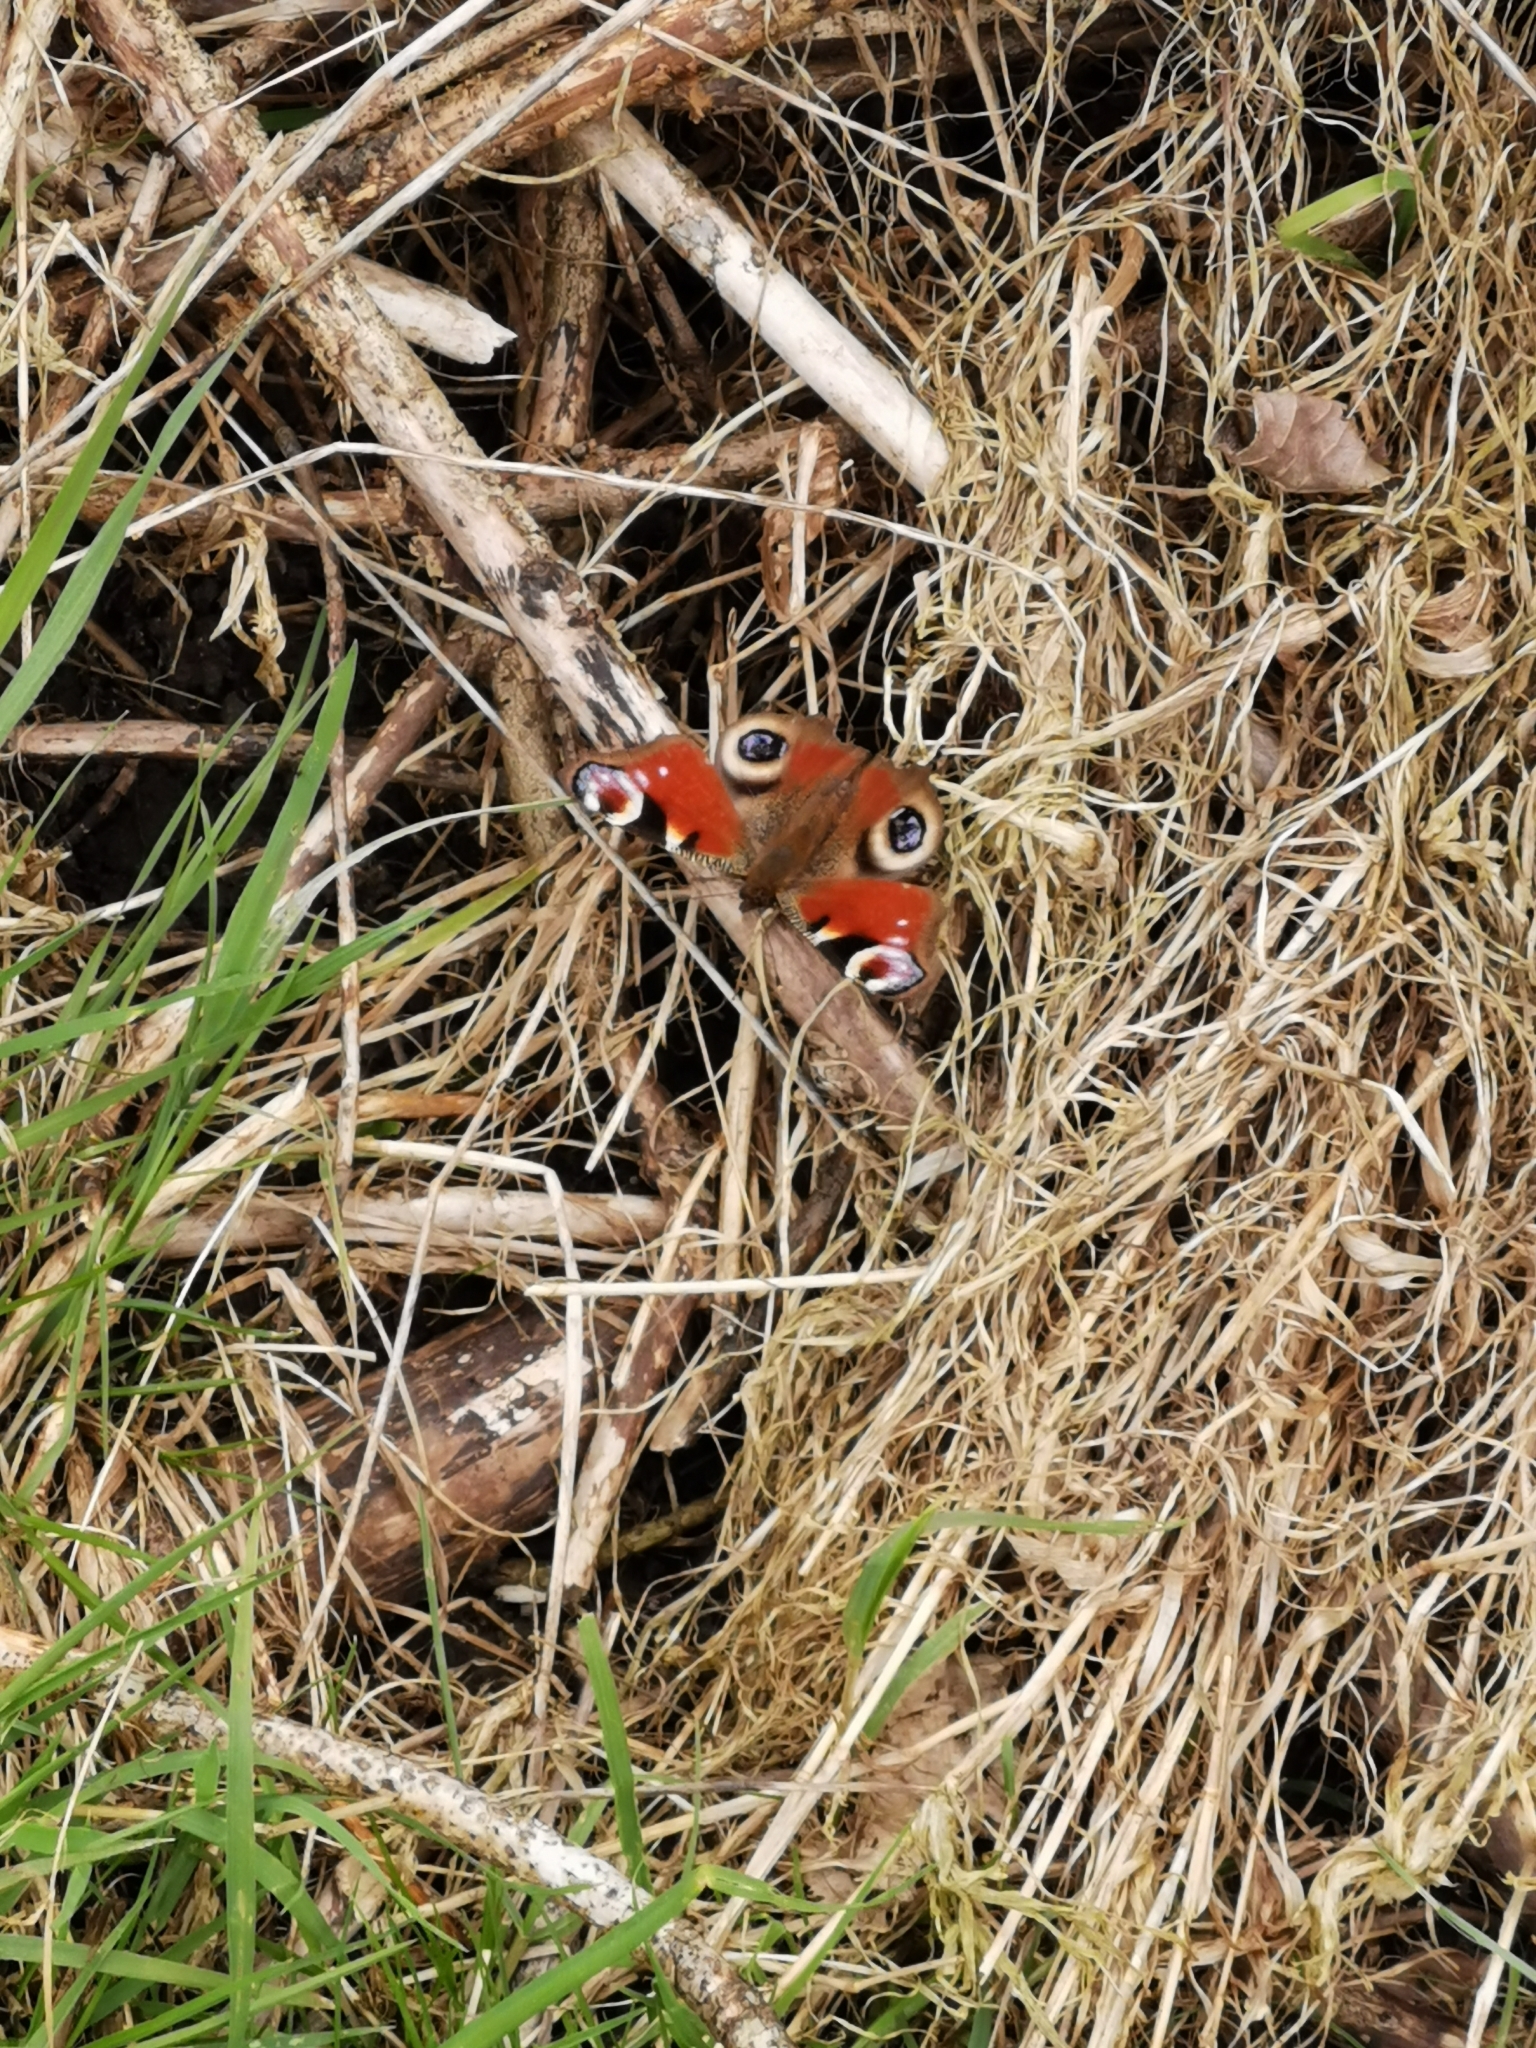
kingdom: Animalia
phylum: Arthropoda
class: Insecta
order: Lepidoptera
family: Nymphalidae
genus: Aglais
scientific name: Aglais io
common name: Peacock
